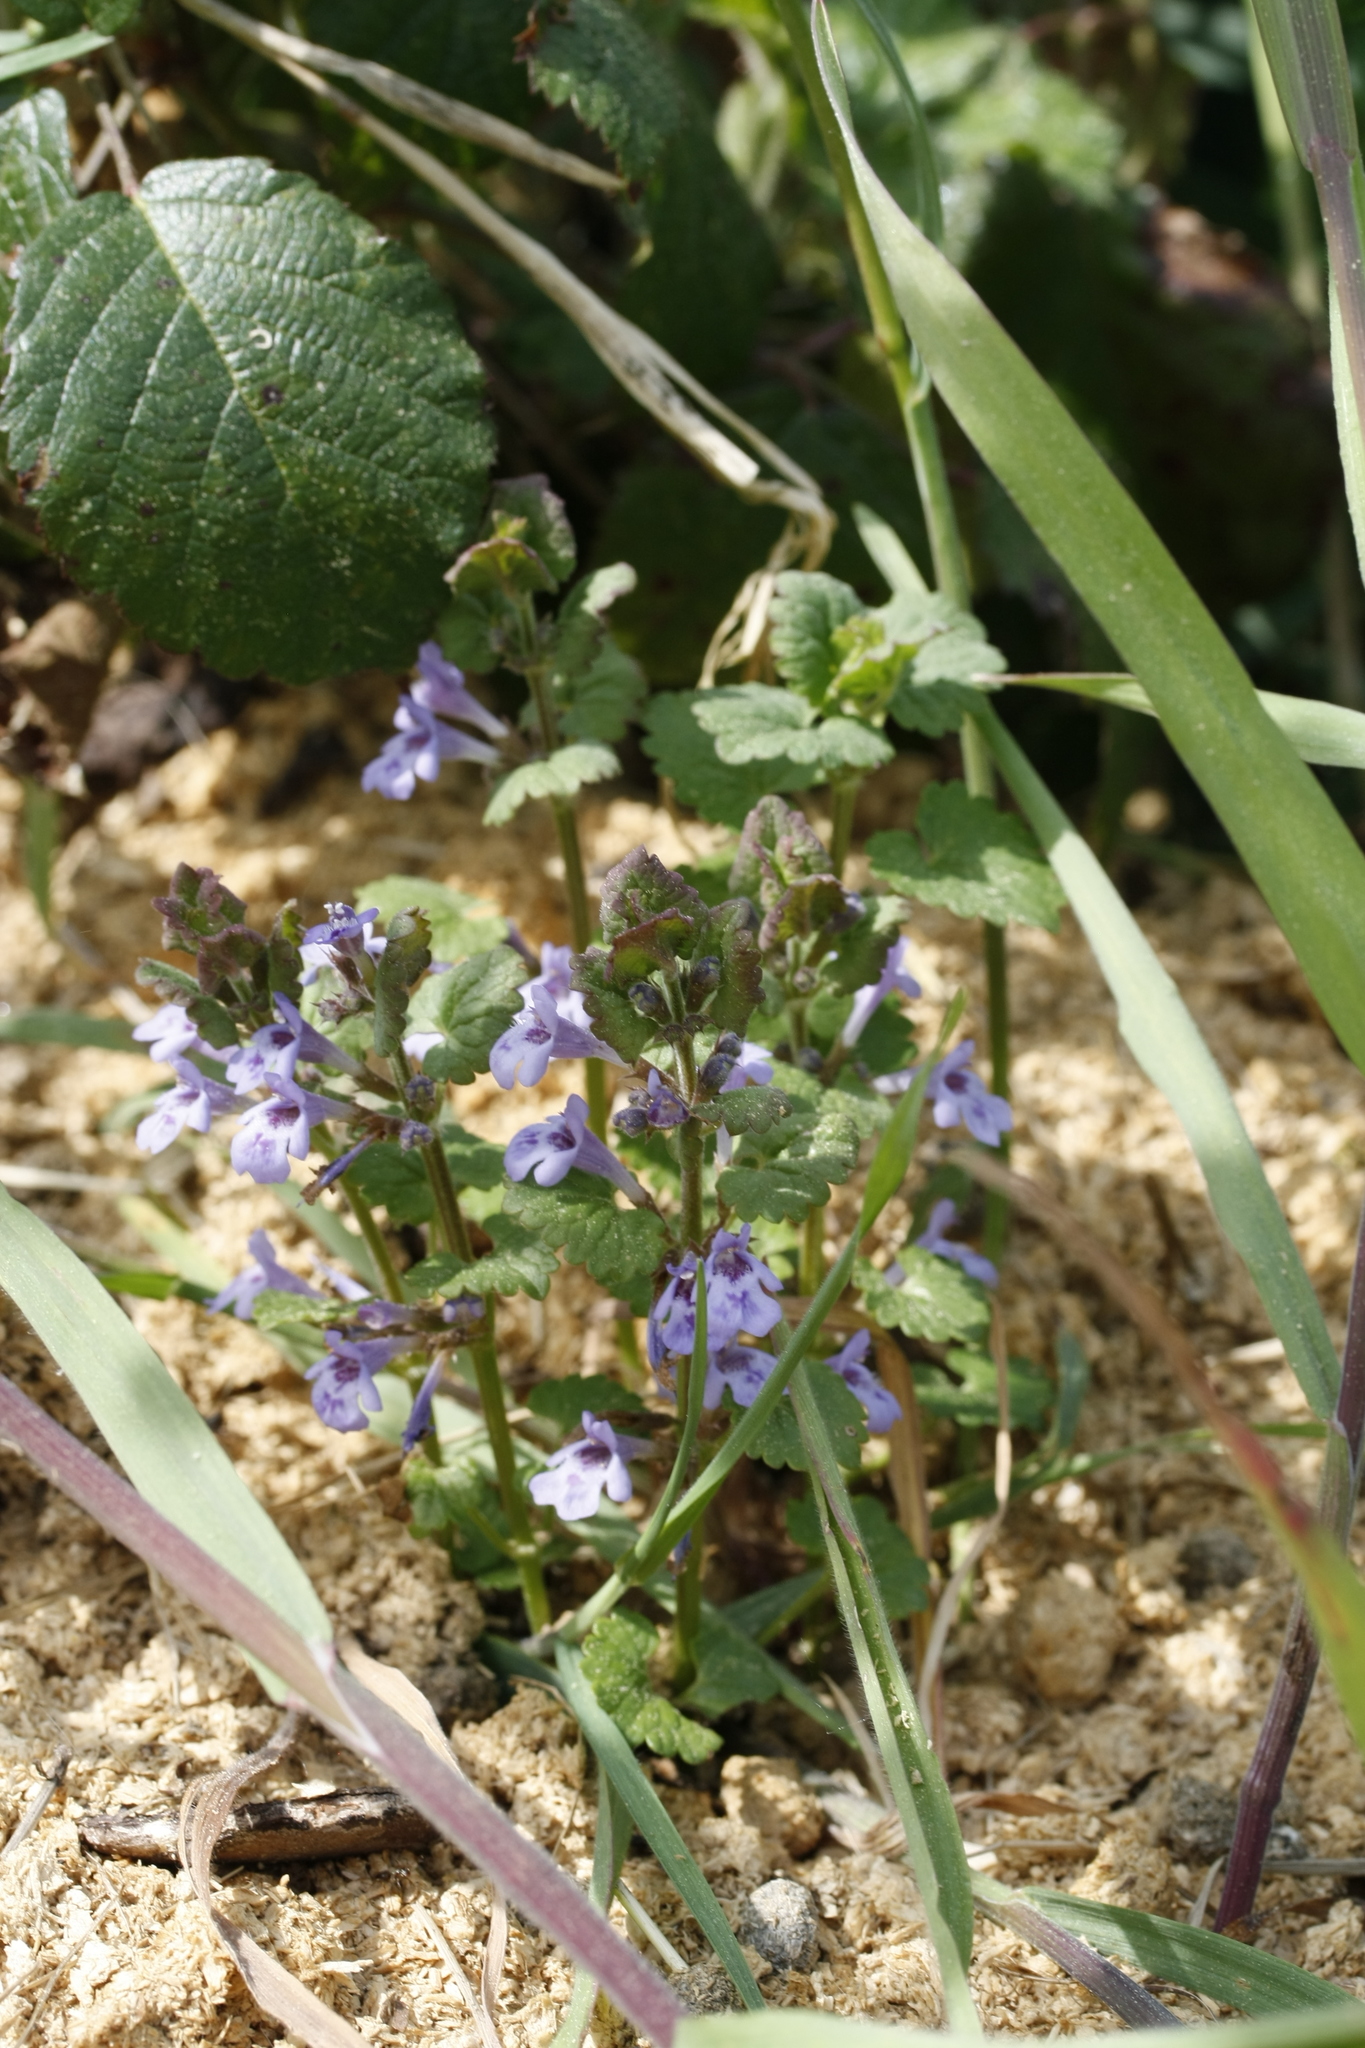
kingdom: Plantae
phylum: Tracheophyta
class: Magnoliopsida
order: Lamiales
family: Lamiaceae
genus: Glechoma
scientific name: Glechoma hederacea
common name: Ground ivy
